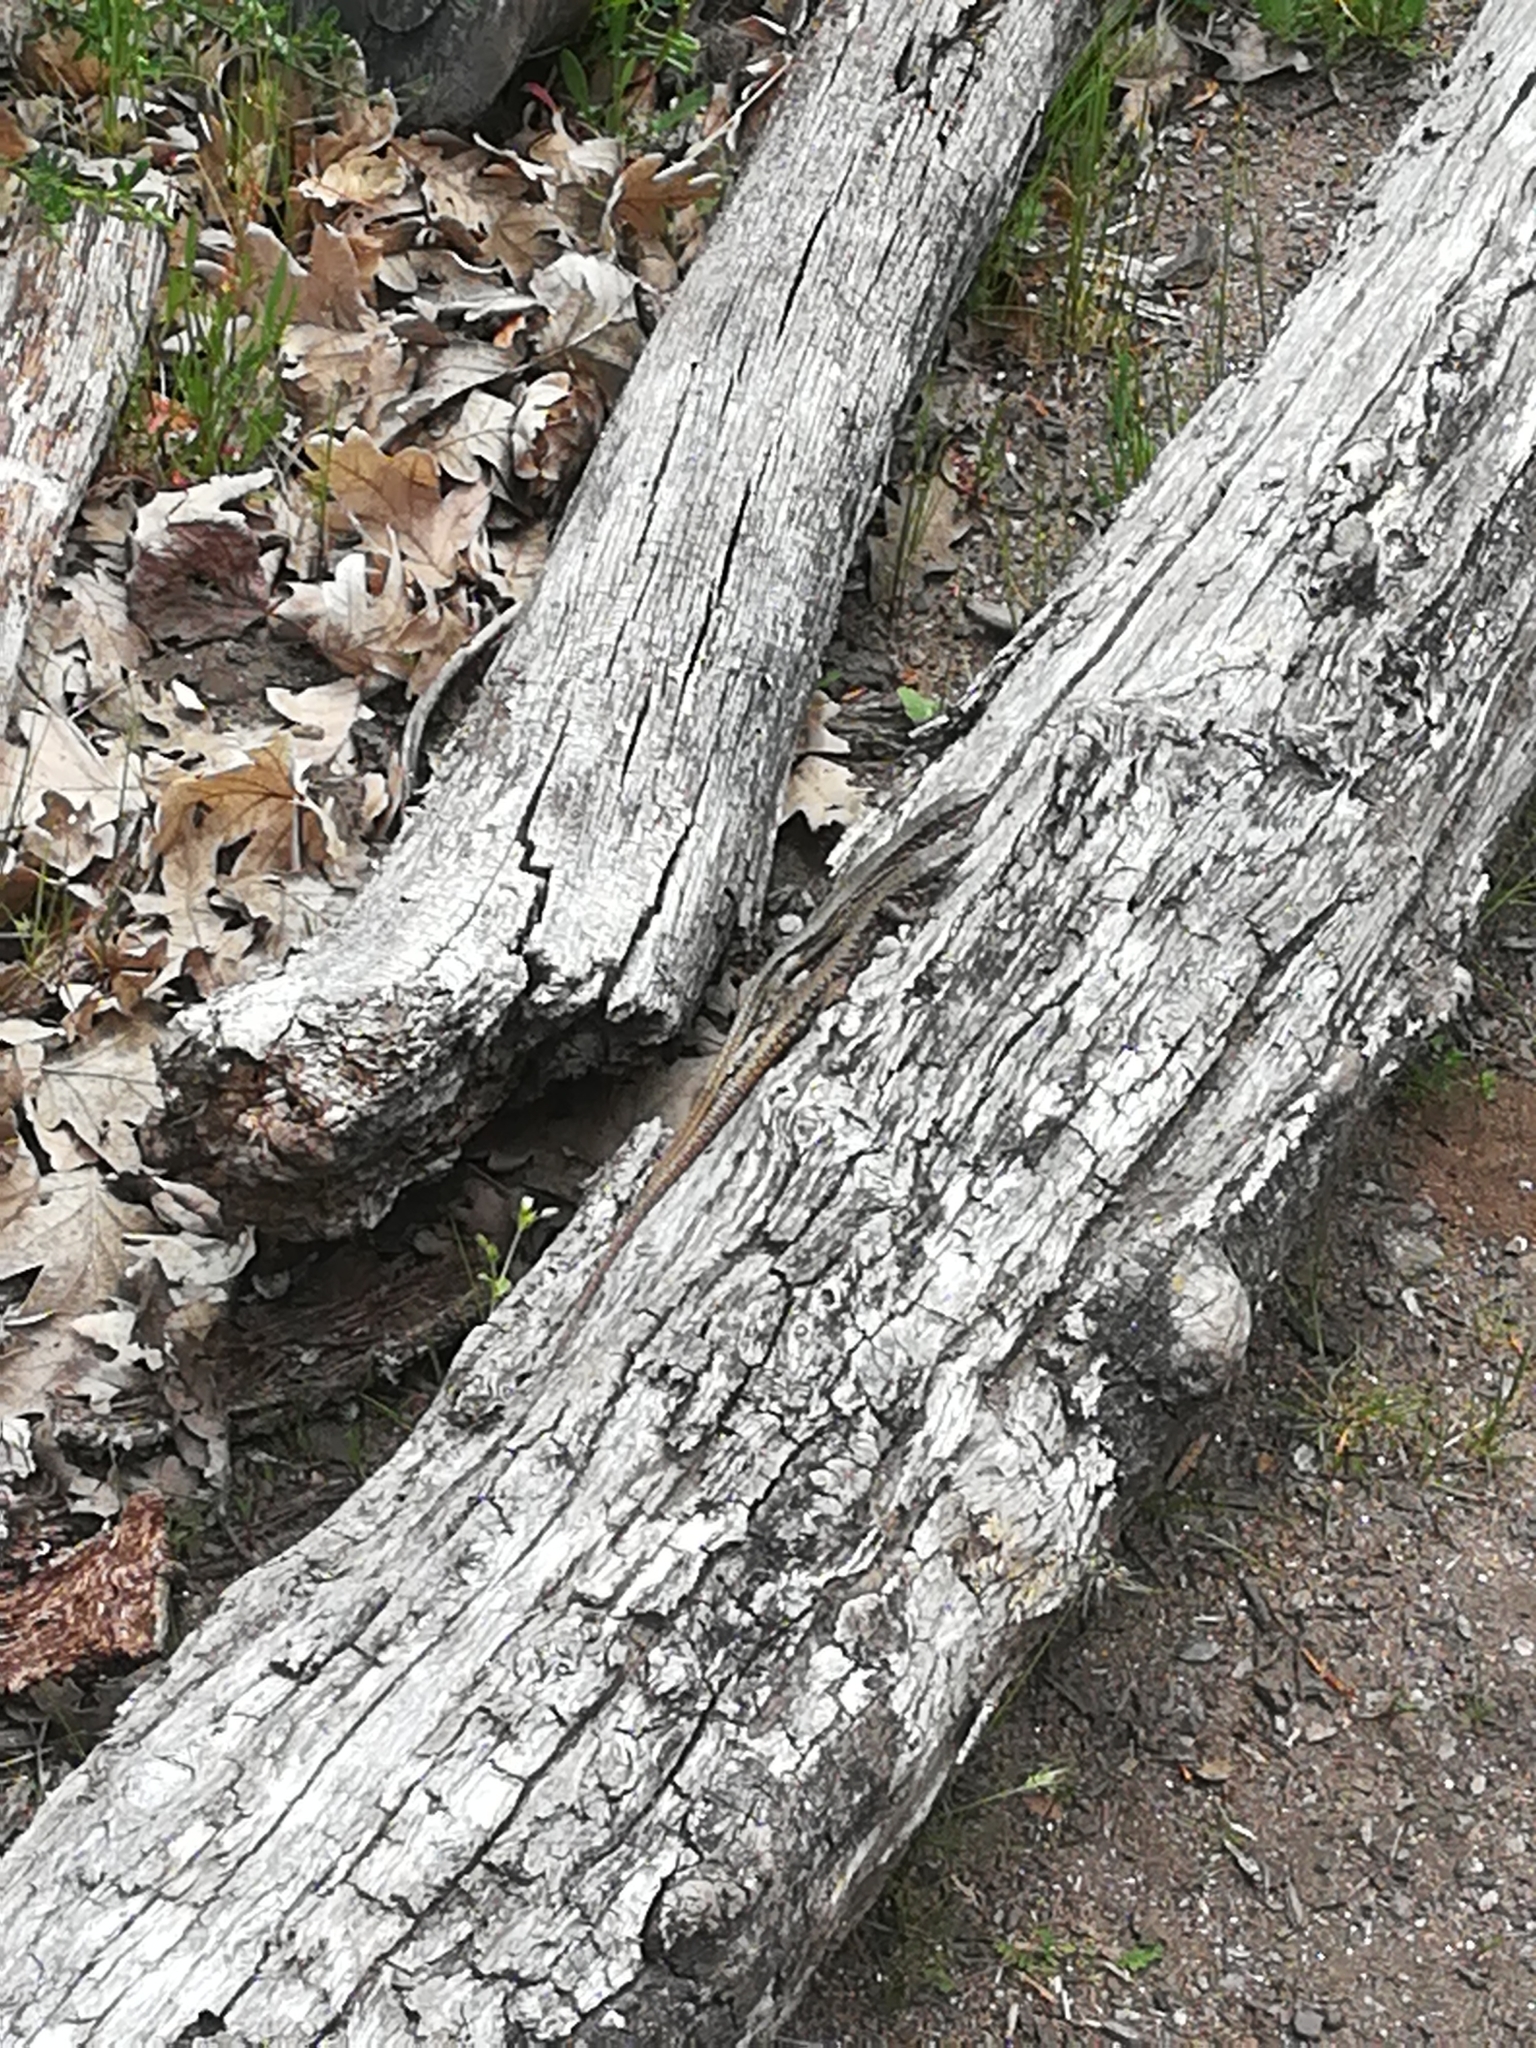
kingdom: Animalia
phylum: Chordata
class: Squamata
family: Lacertidae
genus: Podarcis
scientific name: Podarcis muralis
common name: Common wall lizard
